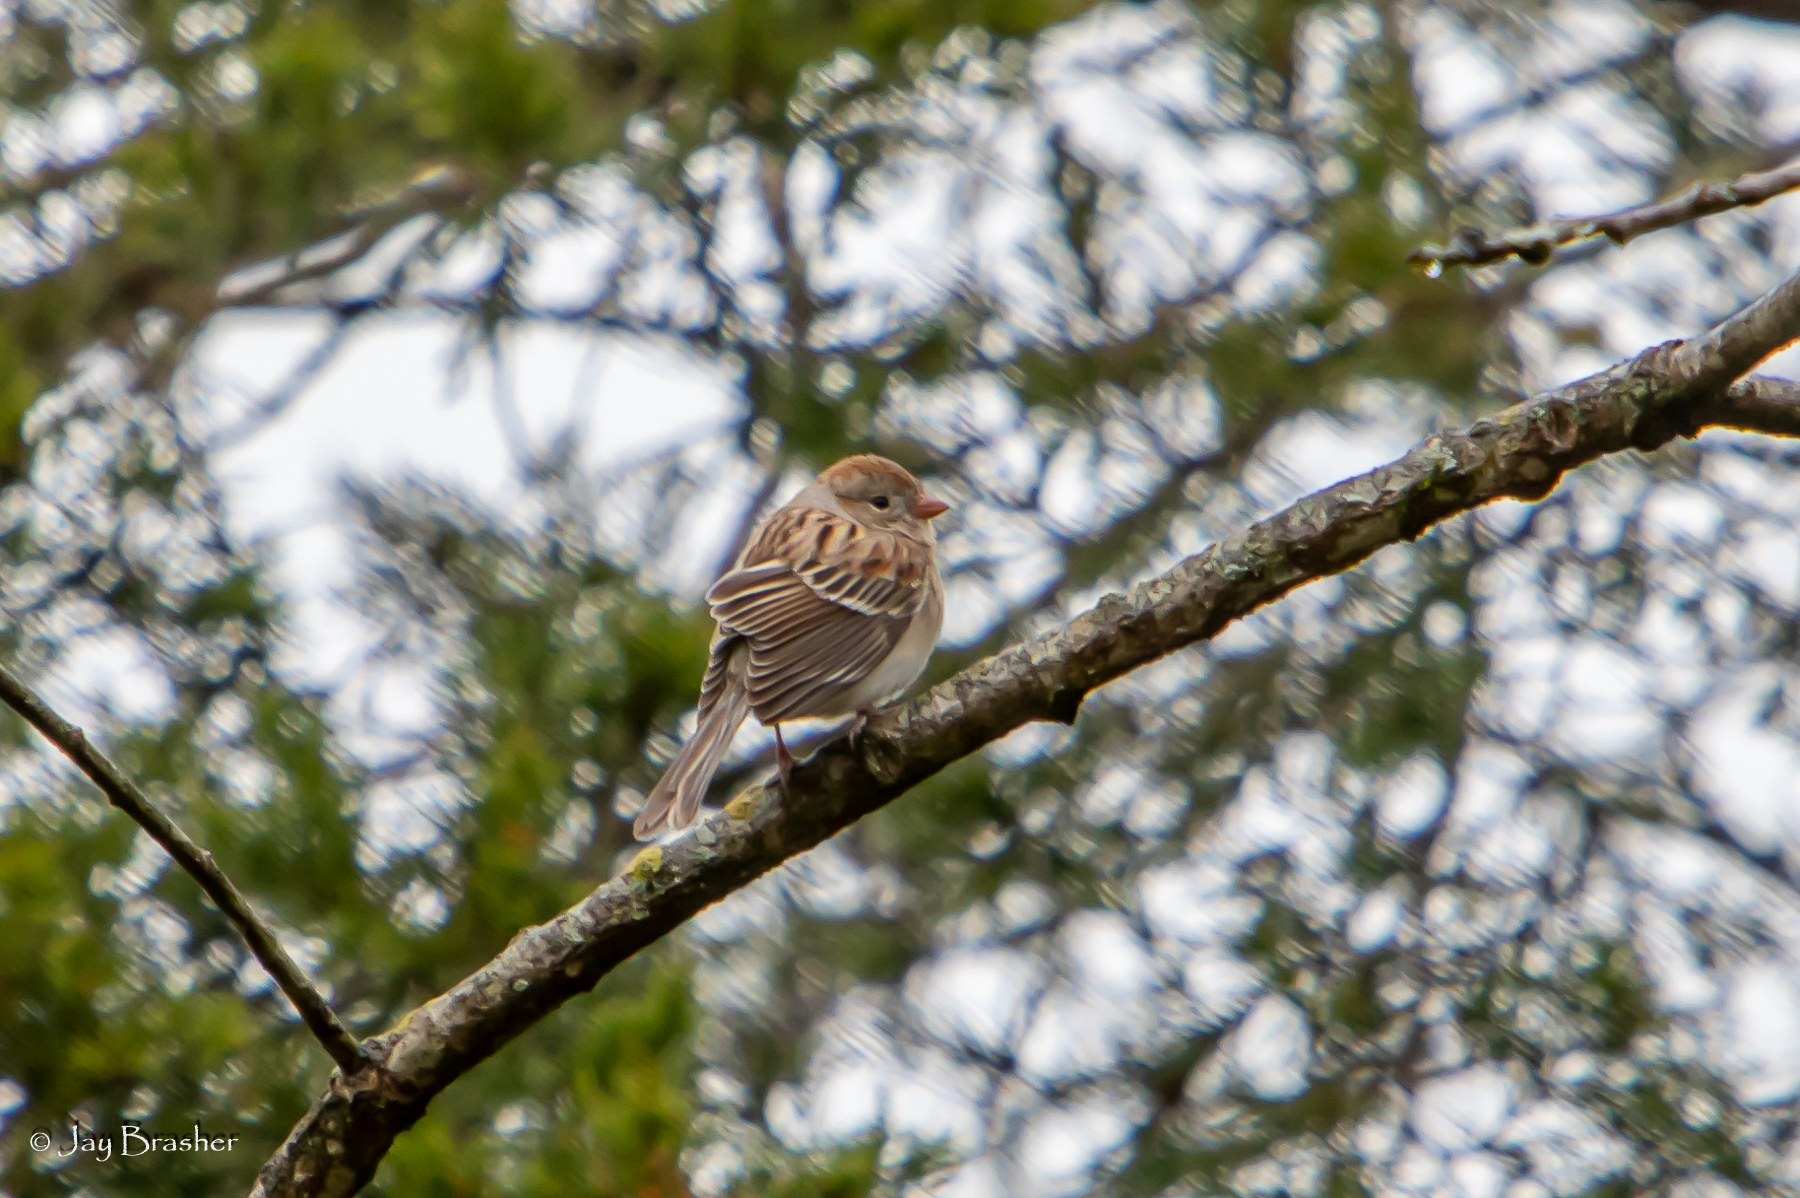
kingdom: Animalia
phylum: Chordata
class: Aves
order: Passeriformes
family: Passerellidae
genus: Spizella
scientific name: Spizella pusilla
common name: Field sparrow
